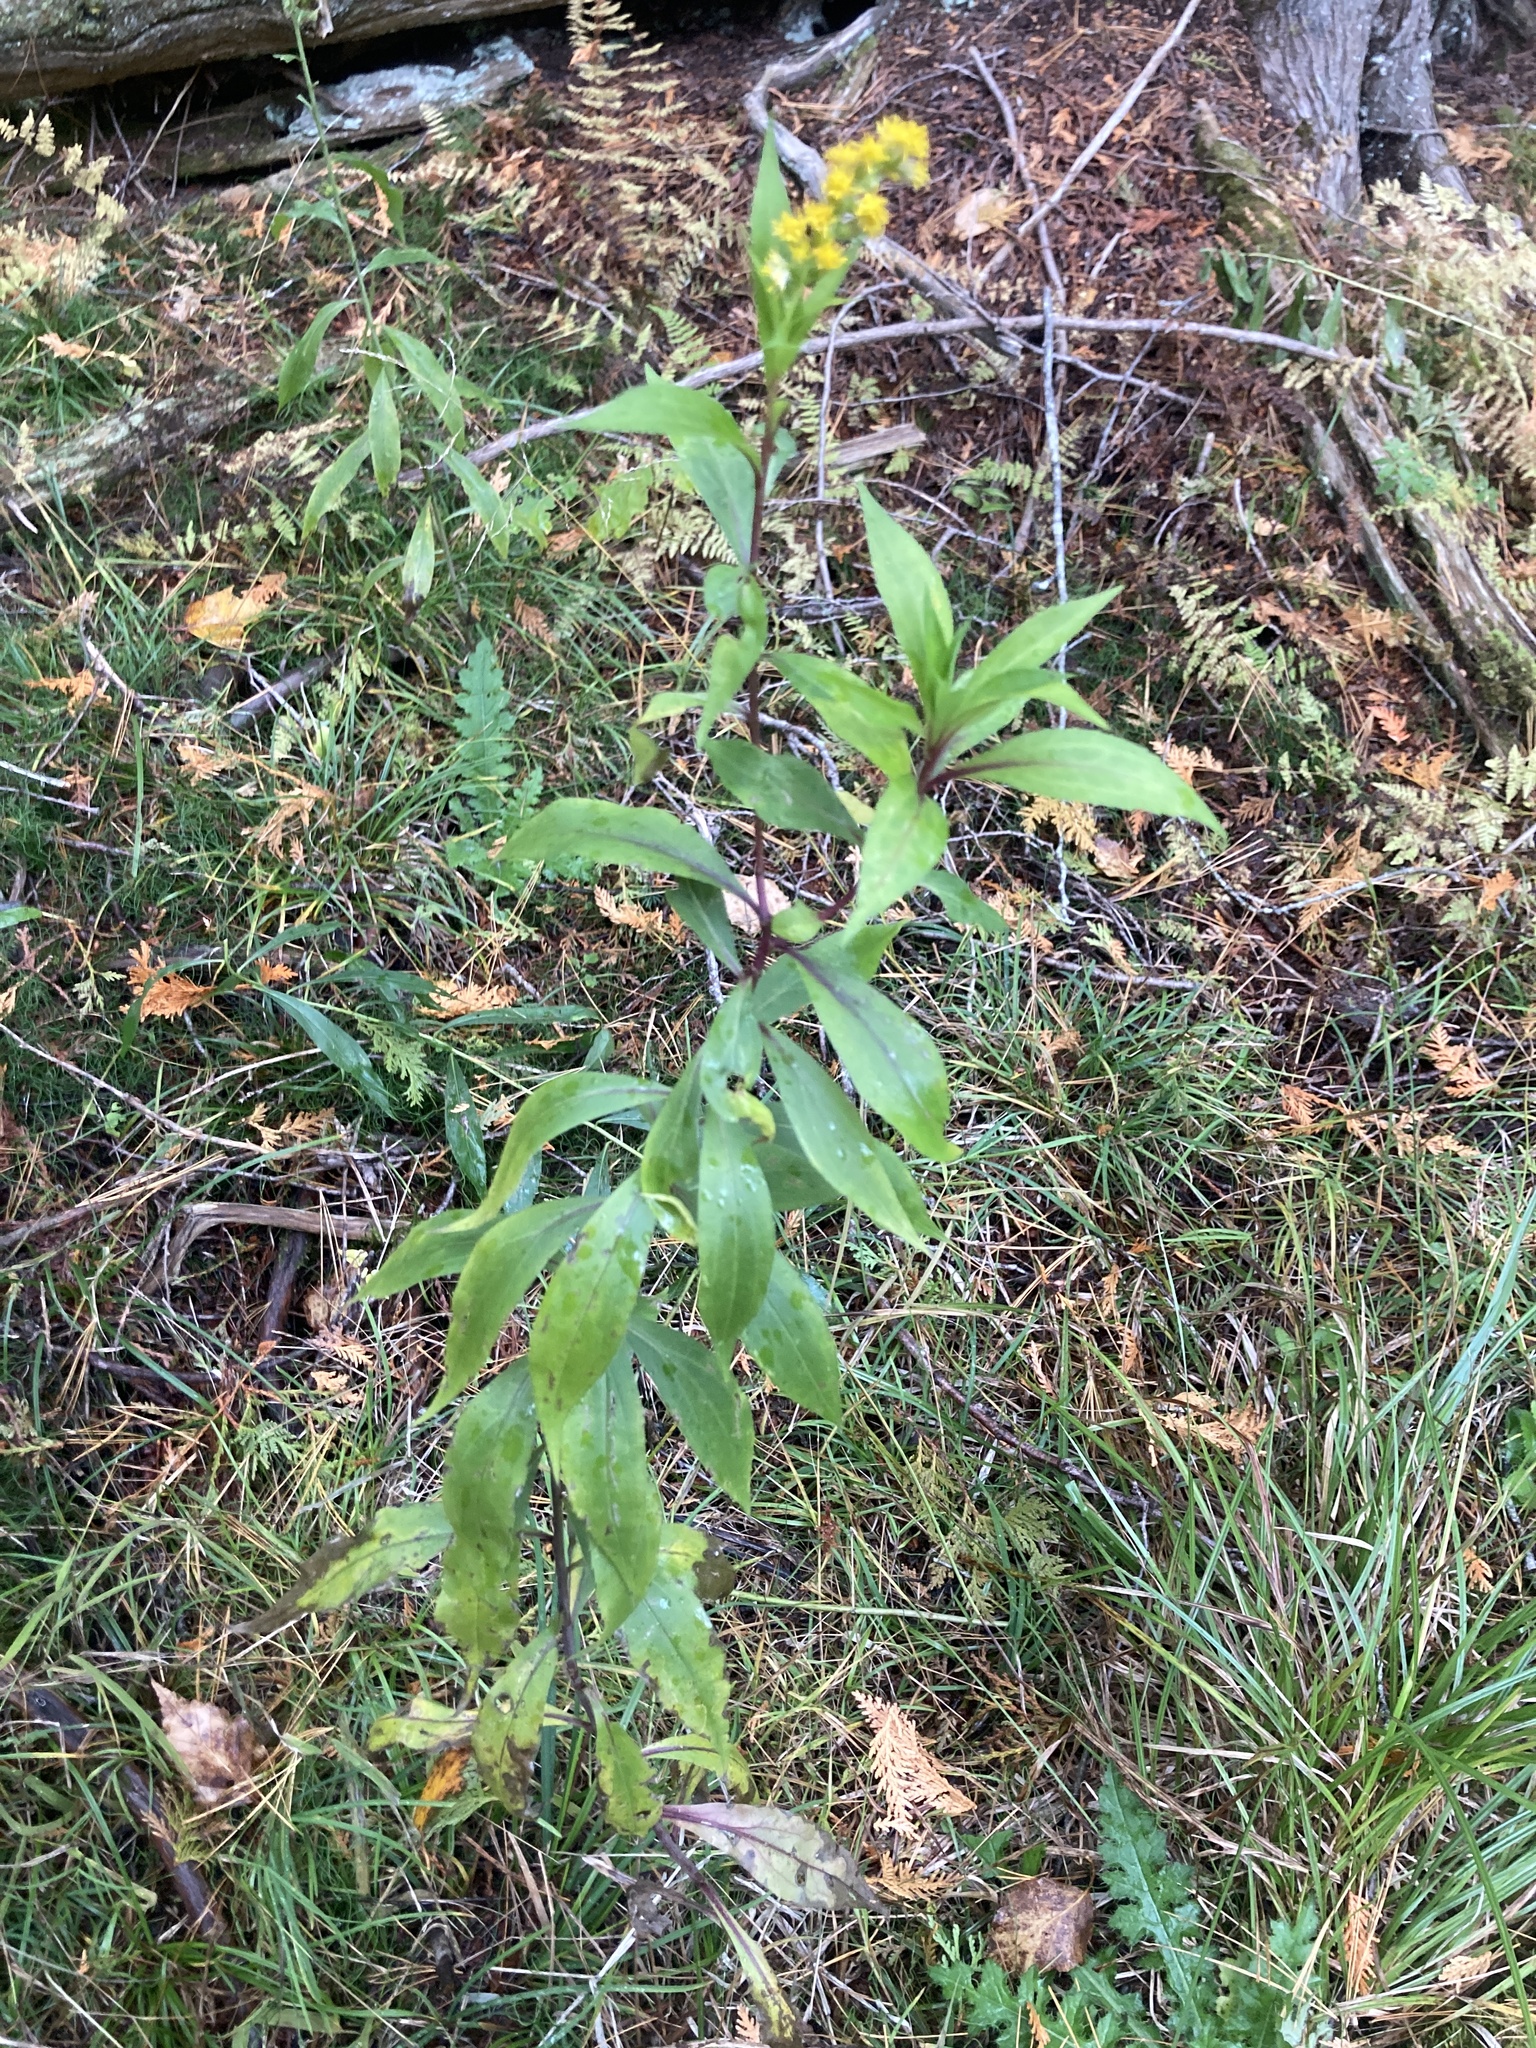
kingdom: Plantae
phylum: Tracheophyta
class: Magnoliopsida
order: Asterales
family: Asteraceae
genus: Solidago
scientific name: Solidago gigantea
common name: Giant goldenrod
